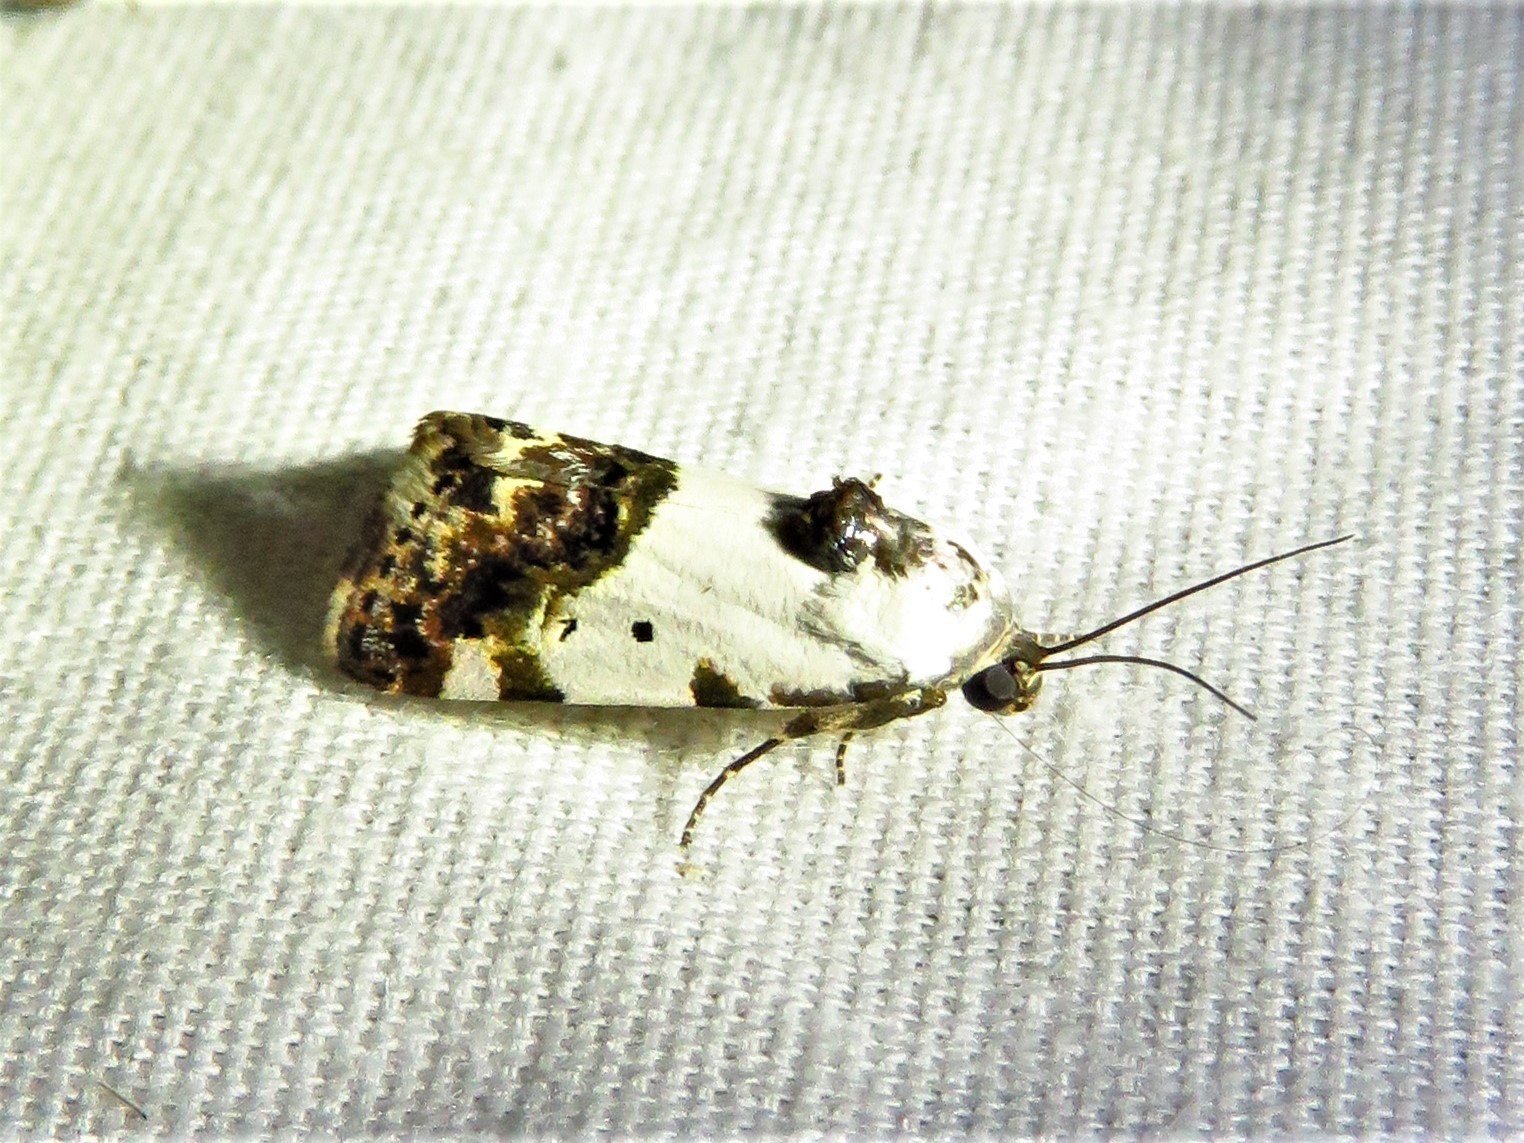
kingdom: Animalia
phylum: Arthropoda
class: Insecta
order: Lepidoptera
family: Noctuidae
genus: Acontia
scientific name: Acontia Tarache abdominalis
